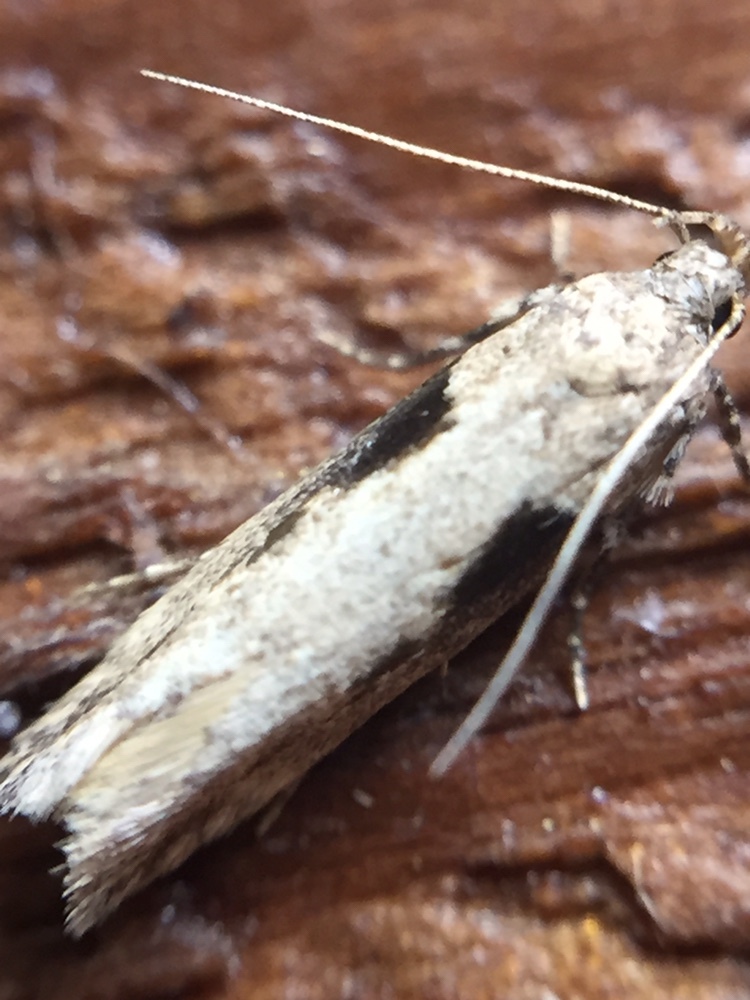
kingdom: Animalia
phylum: Arthropoda
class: Insecta
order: Lepidoptera
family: Gelechiidae
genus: Symmetrischema
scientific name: Symmetrischema tangolias
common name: Moth
